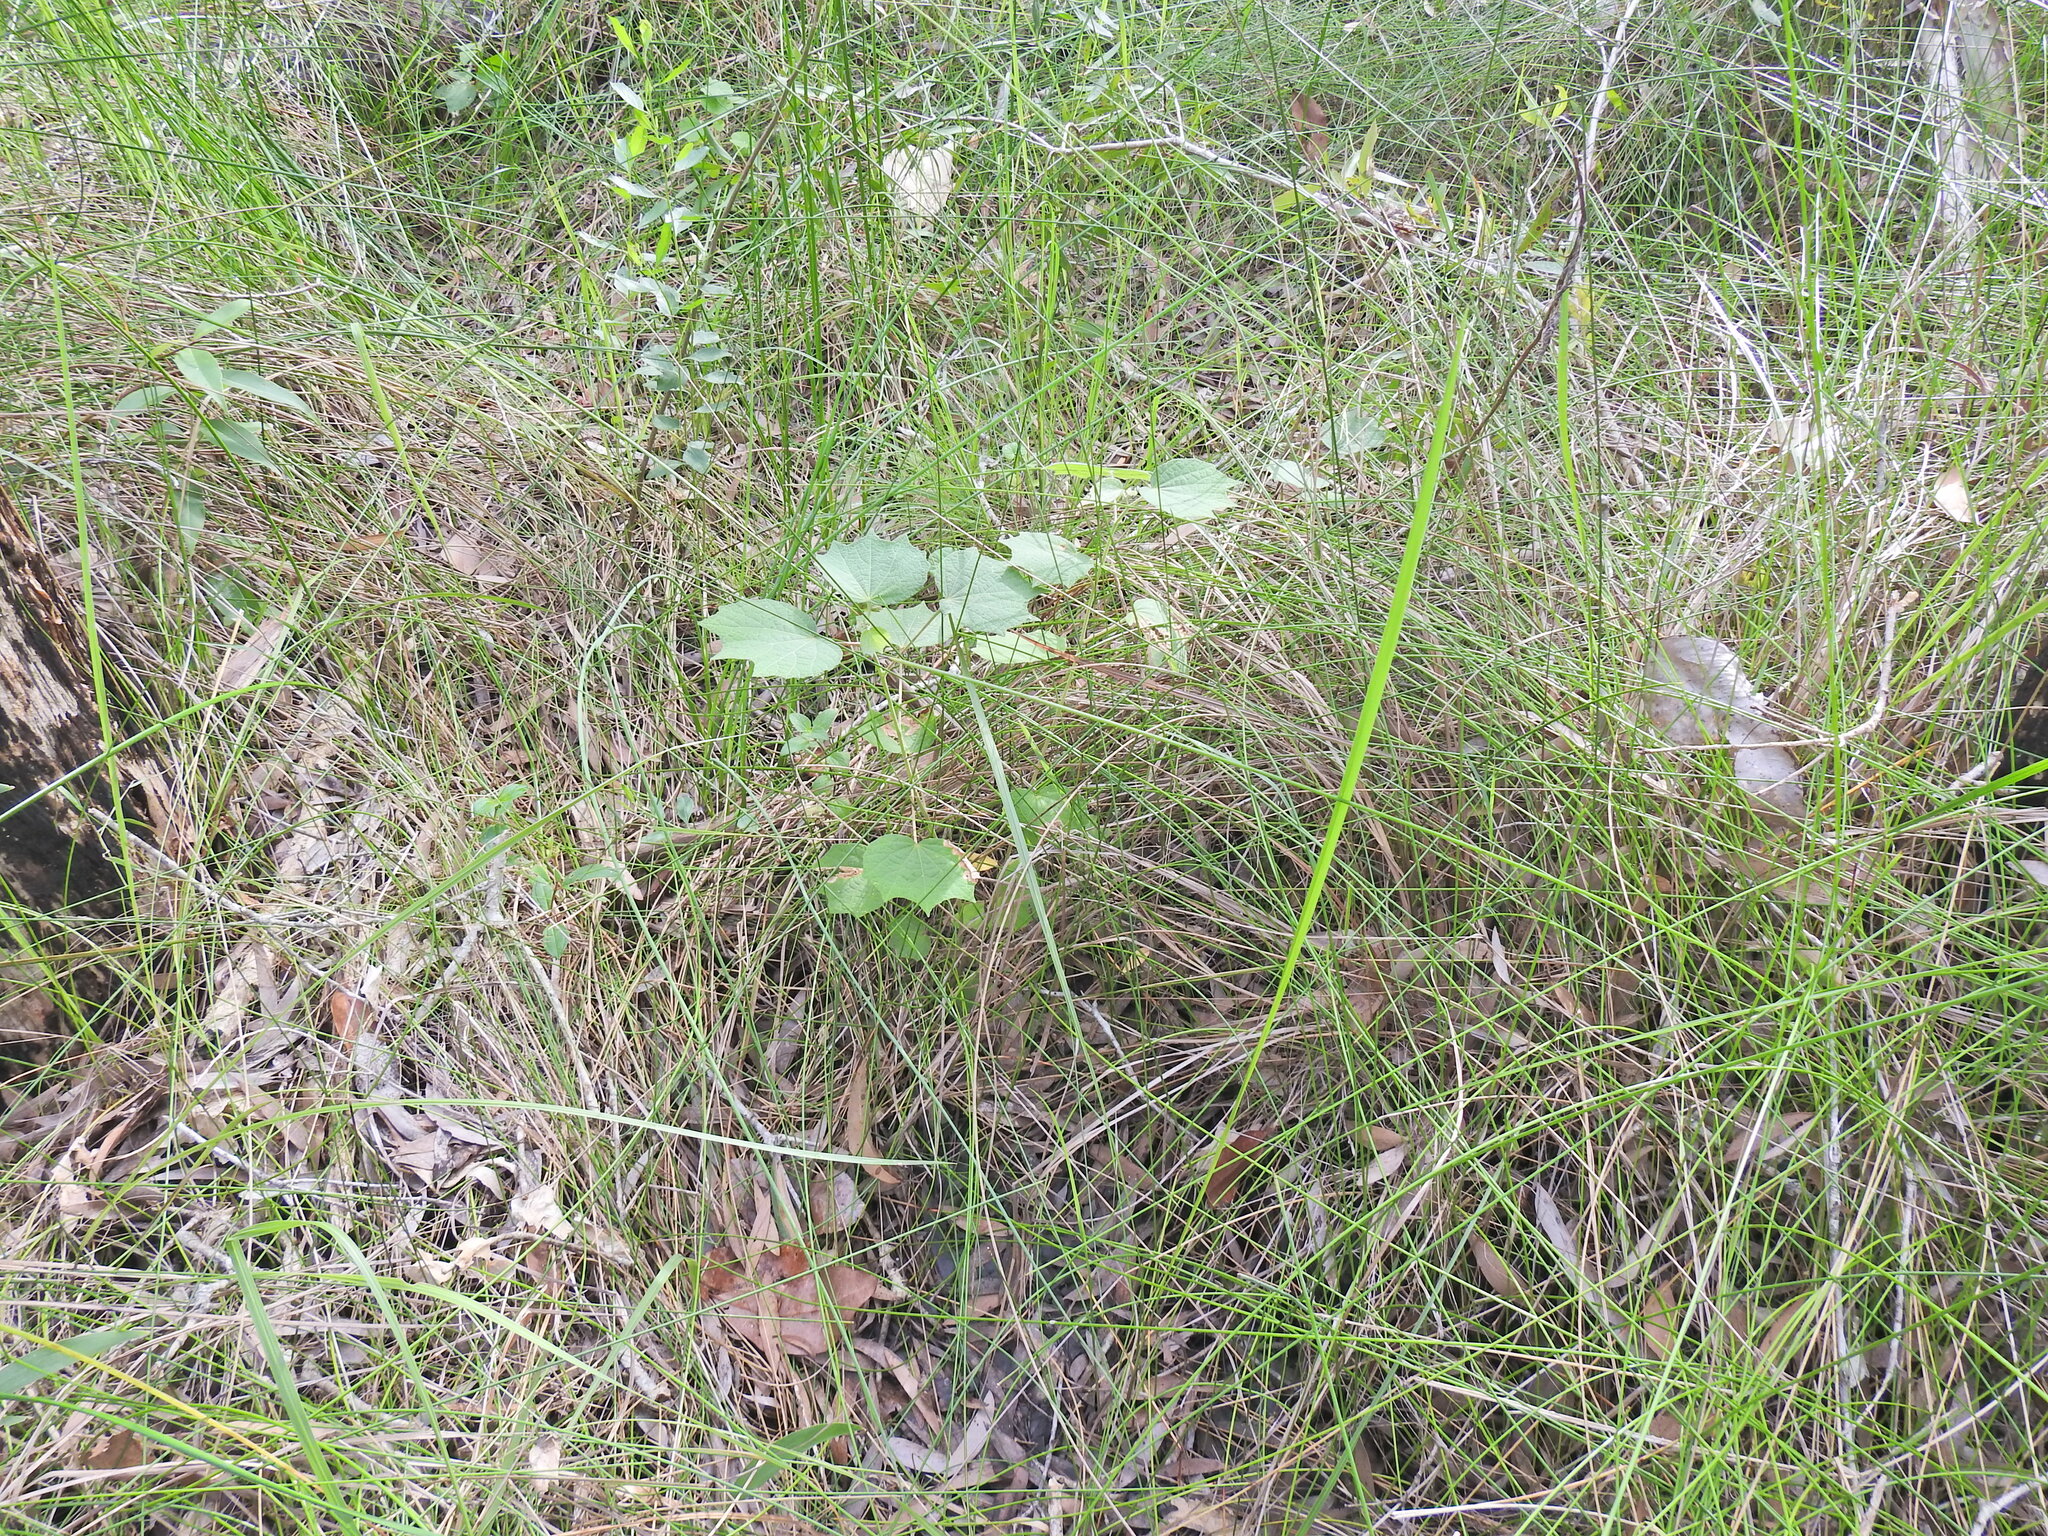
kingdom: Plantae
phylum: Tracheophyta
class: Magnoliopsida
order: Malvales
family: Malvaceae
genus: Urena
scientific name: Urena lobata
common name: Caesarweed
